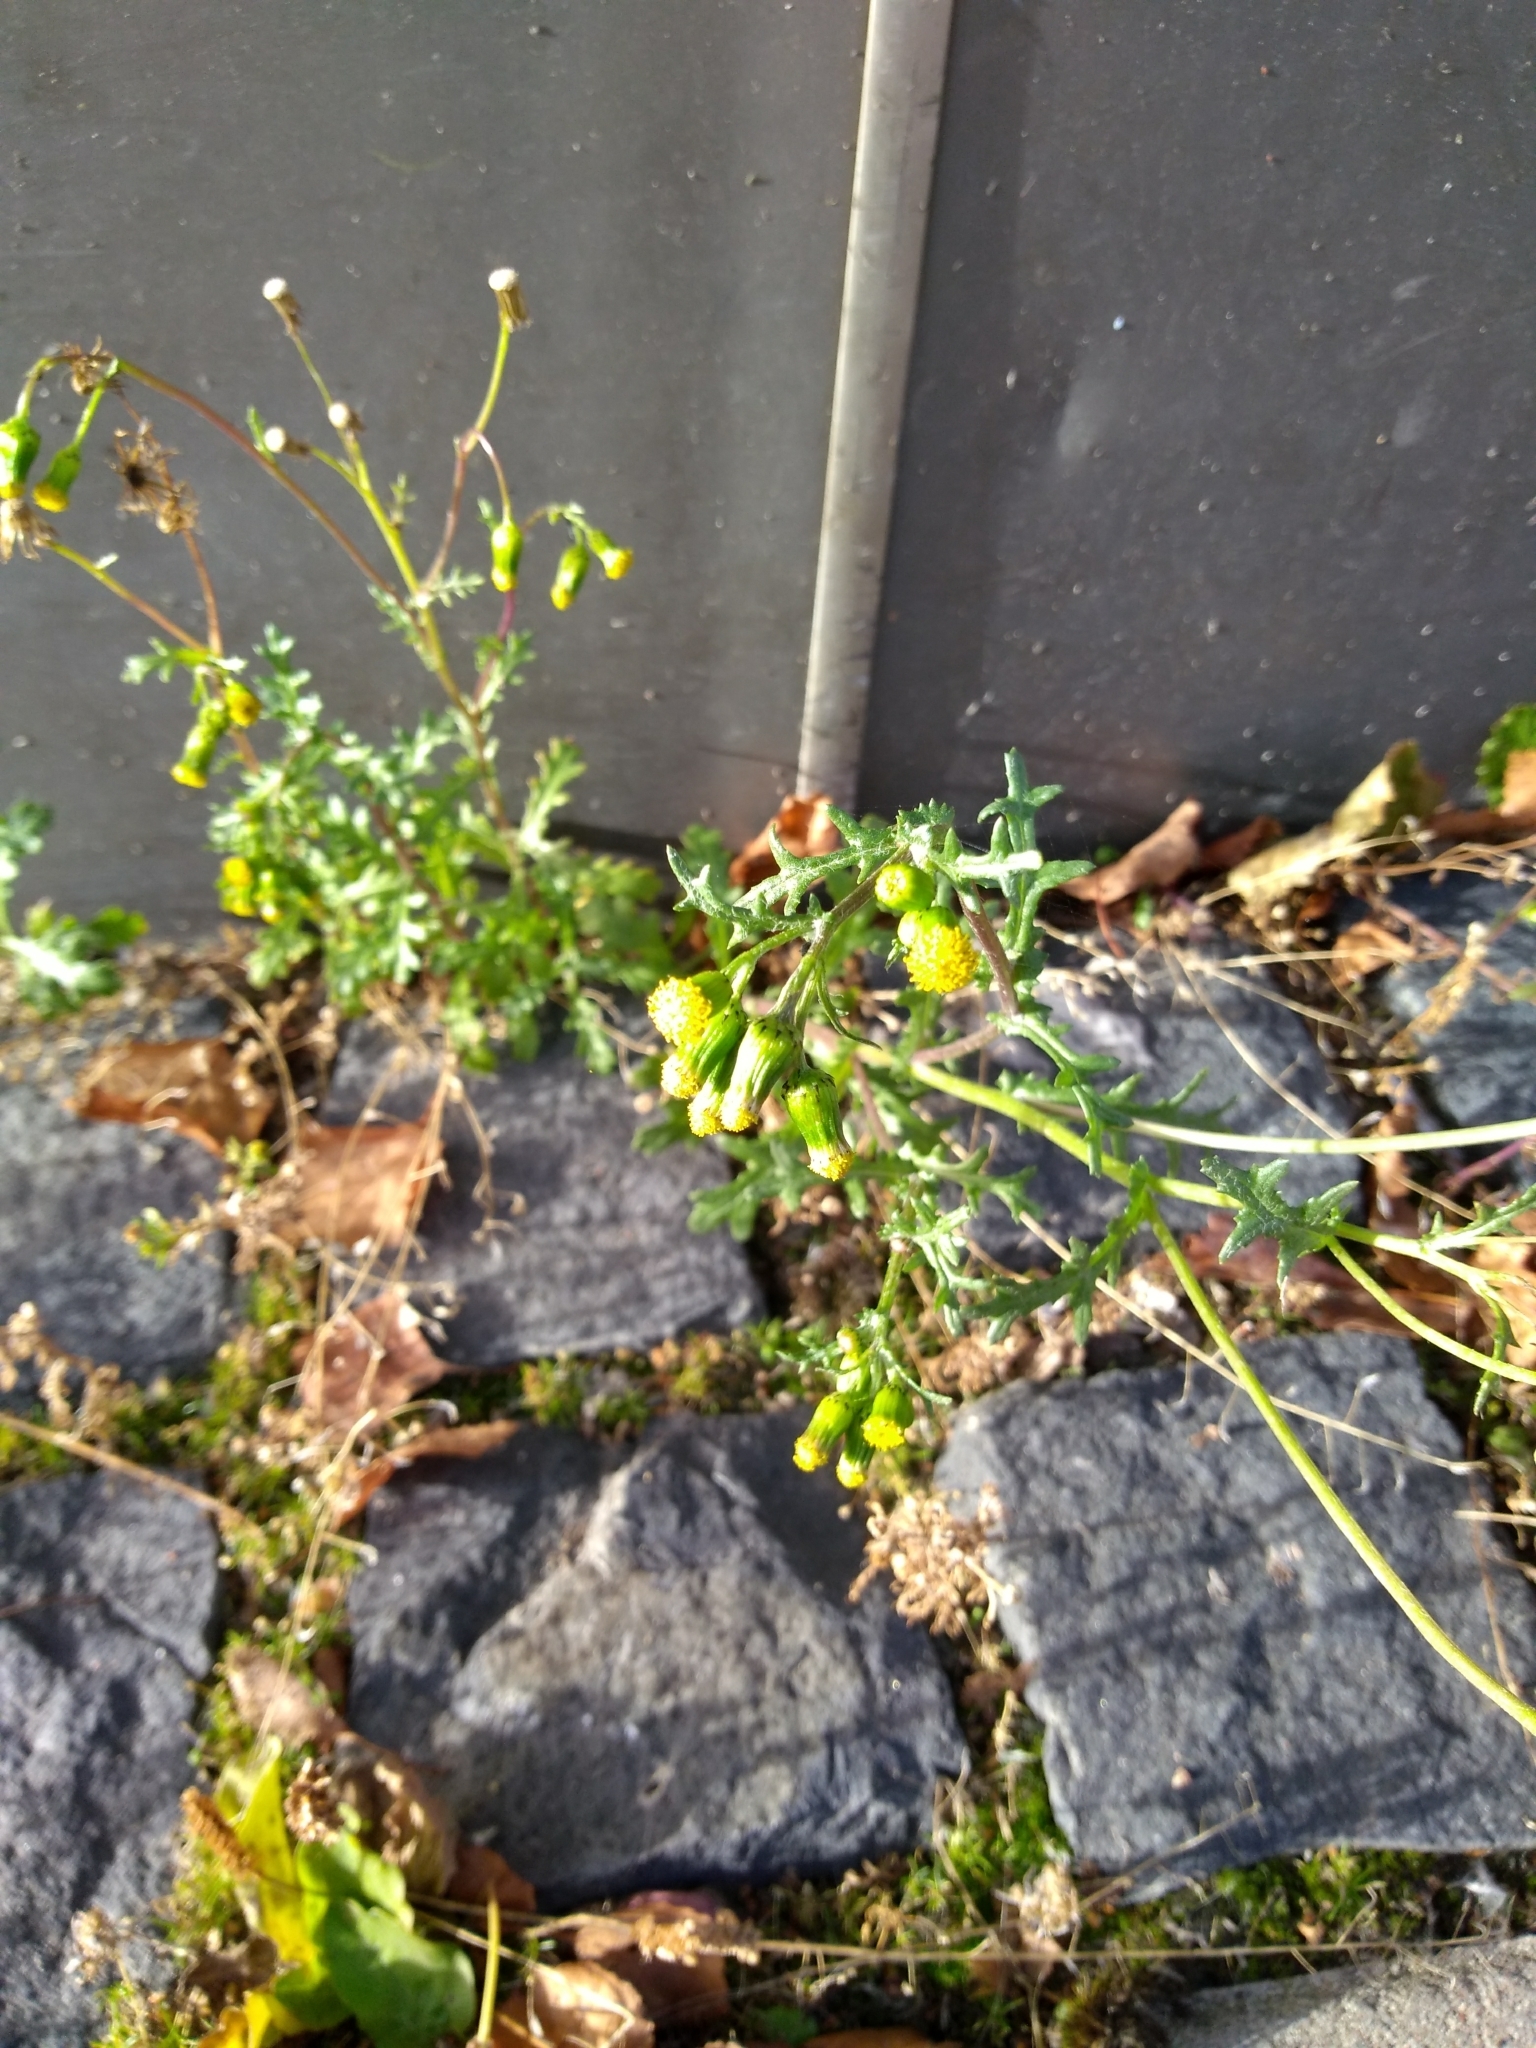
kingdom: Plantae
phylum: Tracheophyta
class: Magnoliopsida
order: Asterales
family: Asteraceae
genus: Senecio
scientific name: Senecio vulgaris
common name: Old-man-in-the-spring
